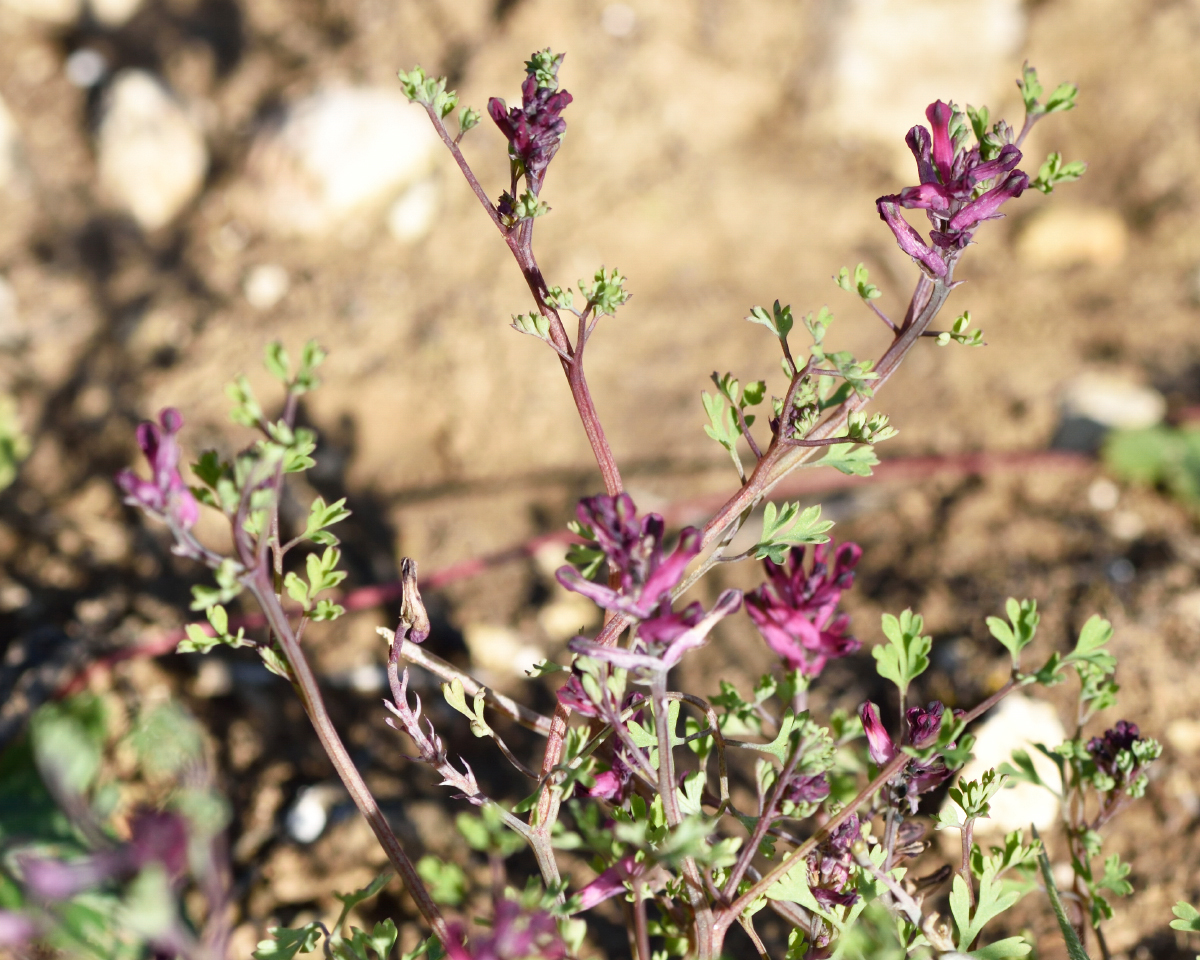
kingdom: Plantae
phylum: Tracheophyta
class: Magnoliopsida
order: Ranunculales
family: Papaveraceae
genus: Fumaria
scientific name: Fumaria officinalis
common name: Common fumitory
